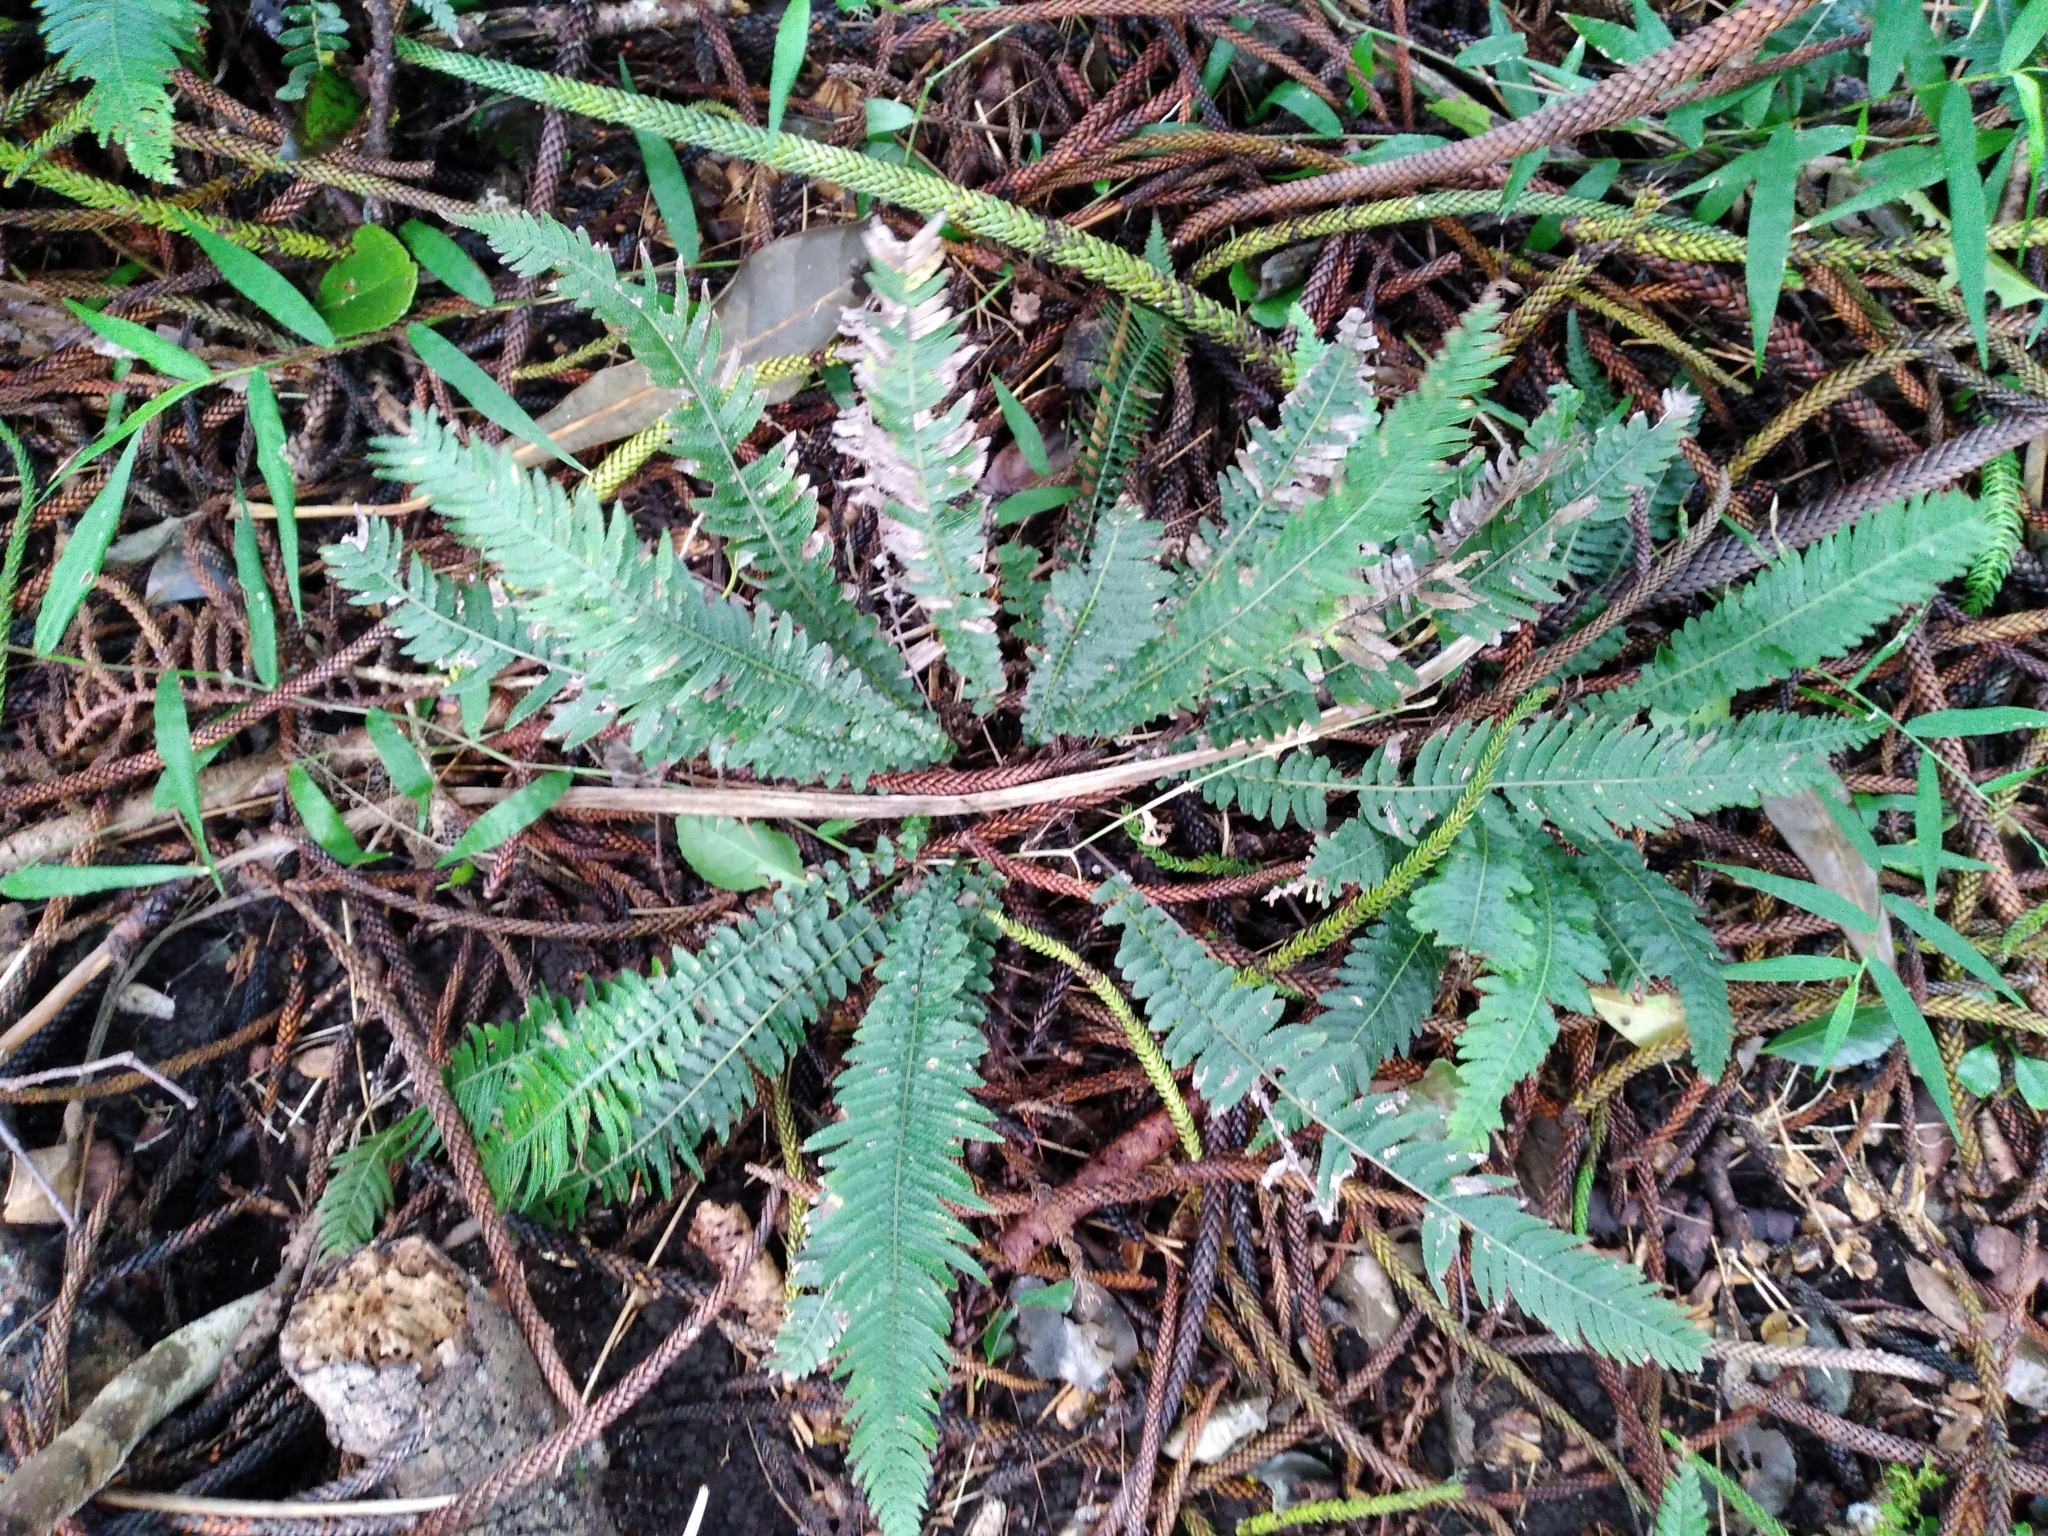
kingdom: Plantae
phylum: Tracheophyta
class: Polypodiopsida
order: Polypodiales
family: Blechnaceae
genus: Doodia
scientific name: Doodia australis
